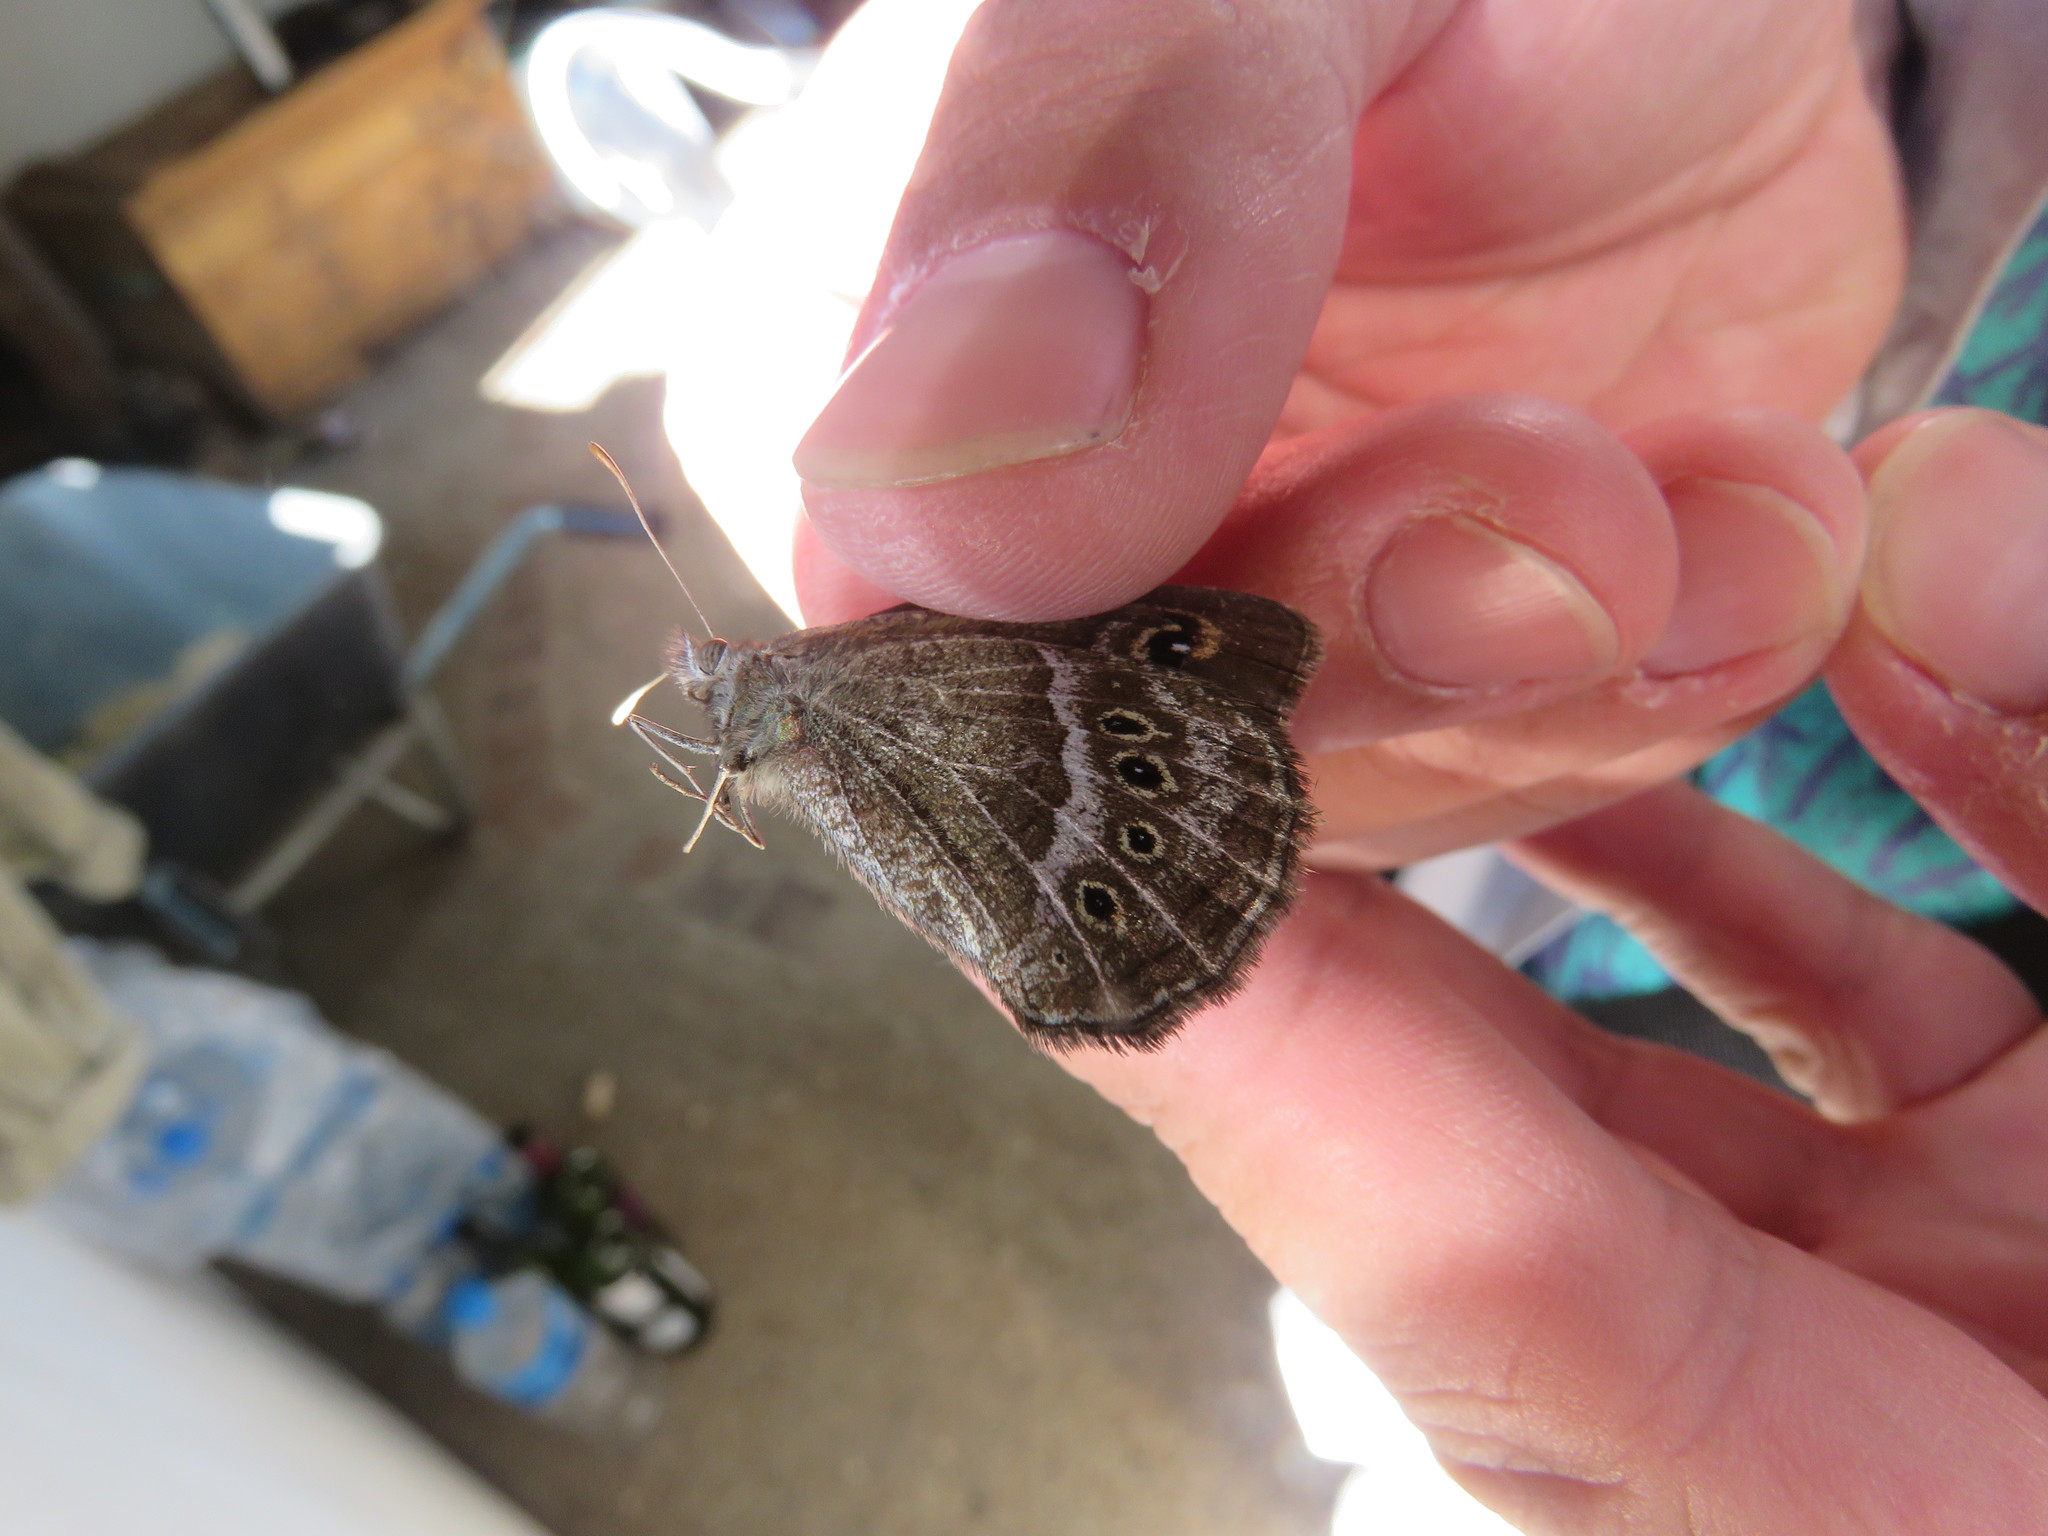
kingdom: Animalia
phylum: Arthropoda
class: Insecta
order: Lepidoptera
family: Nymphalidae
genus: Pampasatyrus
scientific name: Pampasatyrus gyrtone
